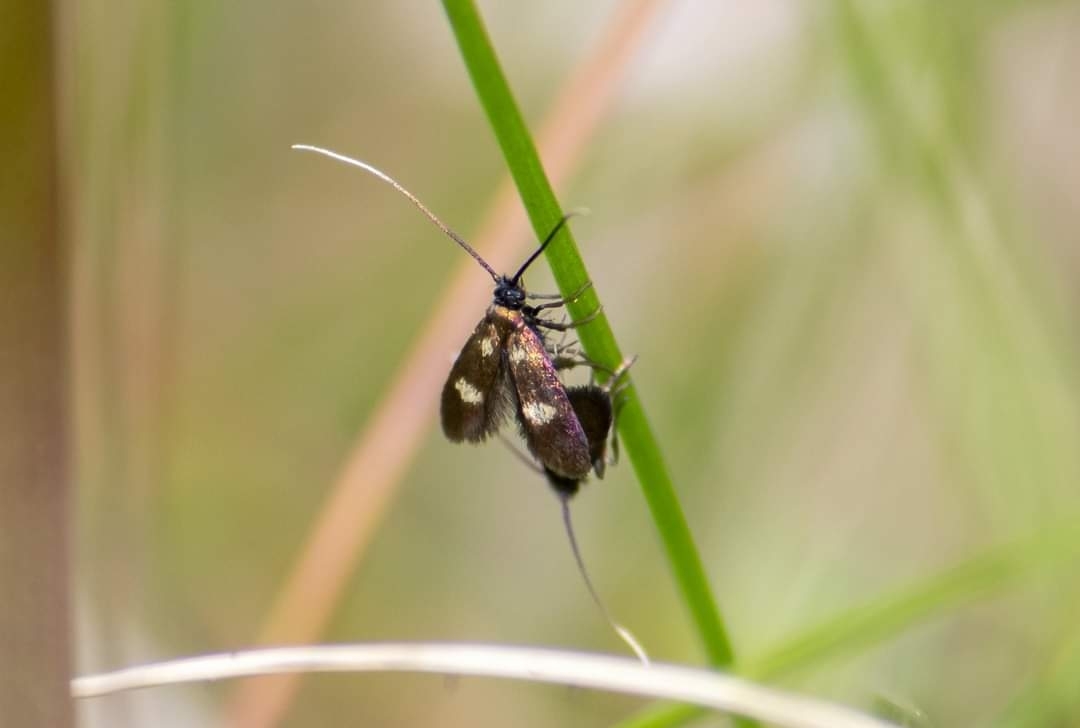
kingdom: Animalia
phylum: Arthropoda
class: Insecta
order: Lepidoptera
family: Adelidae
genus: Cauchas
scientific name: Cauchas fibulella
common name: Little long-horn
